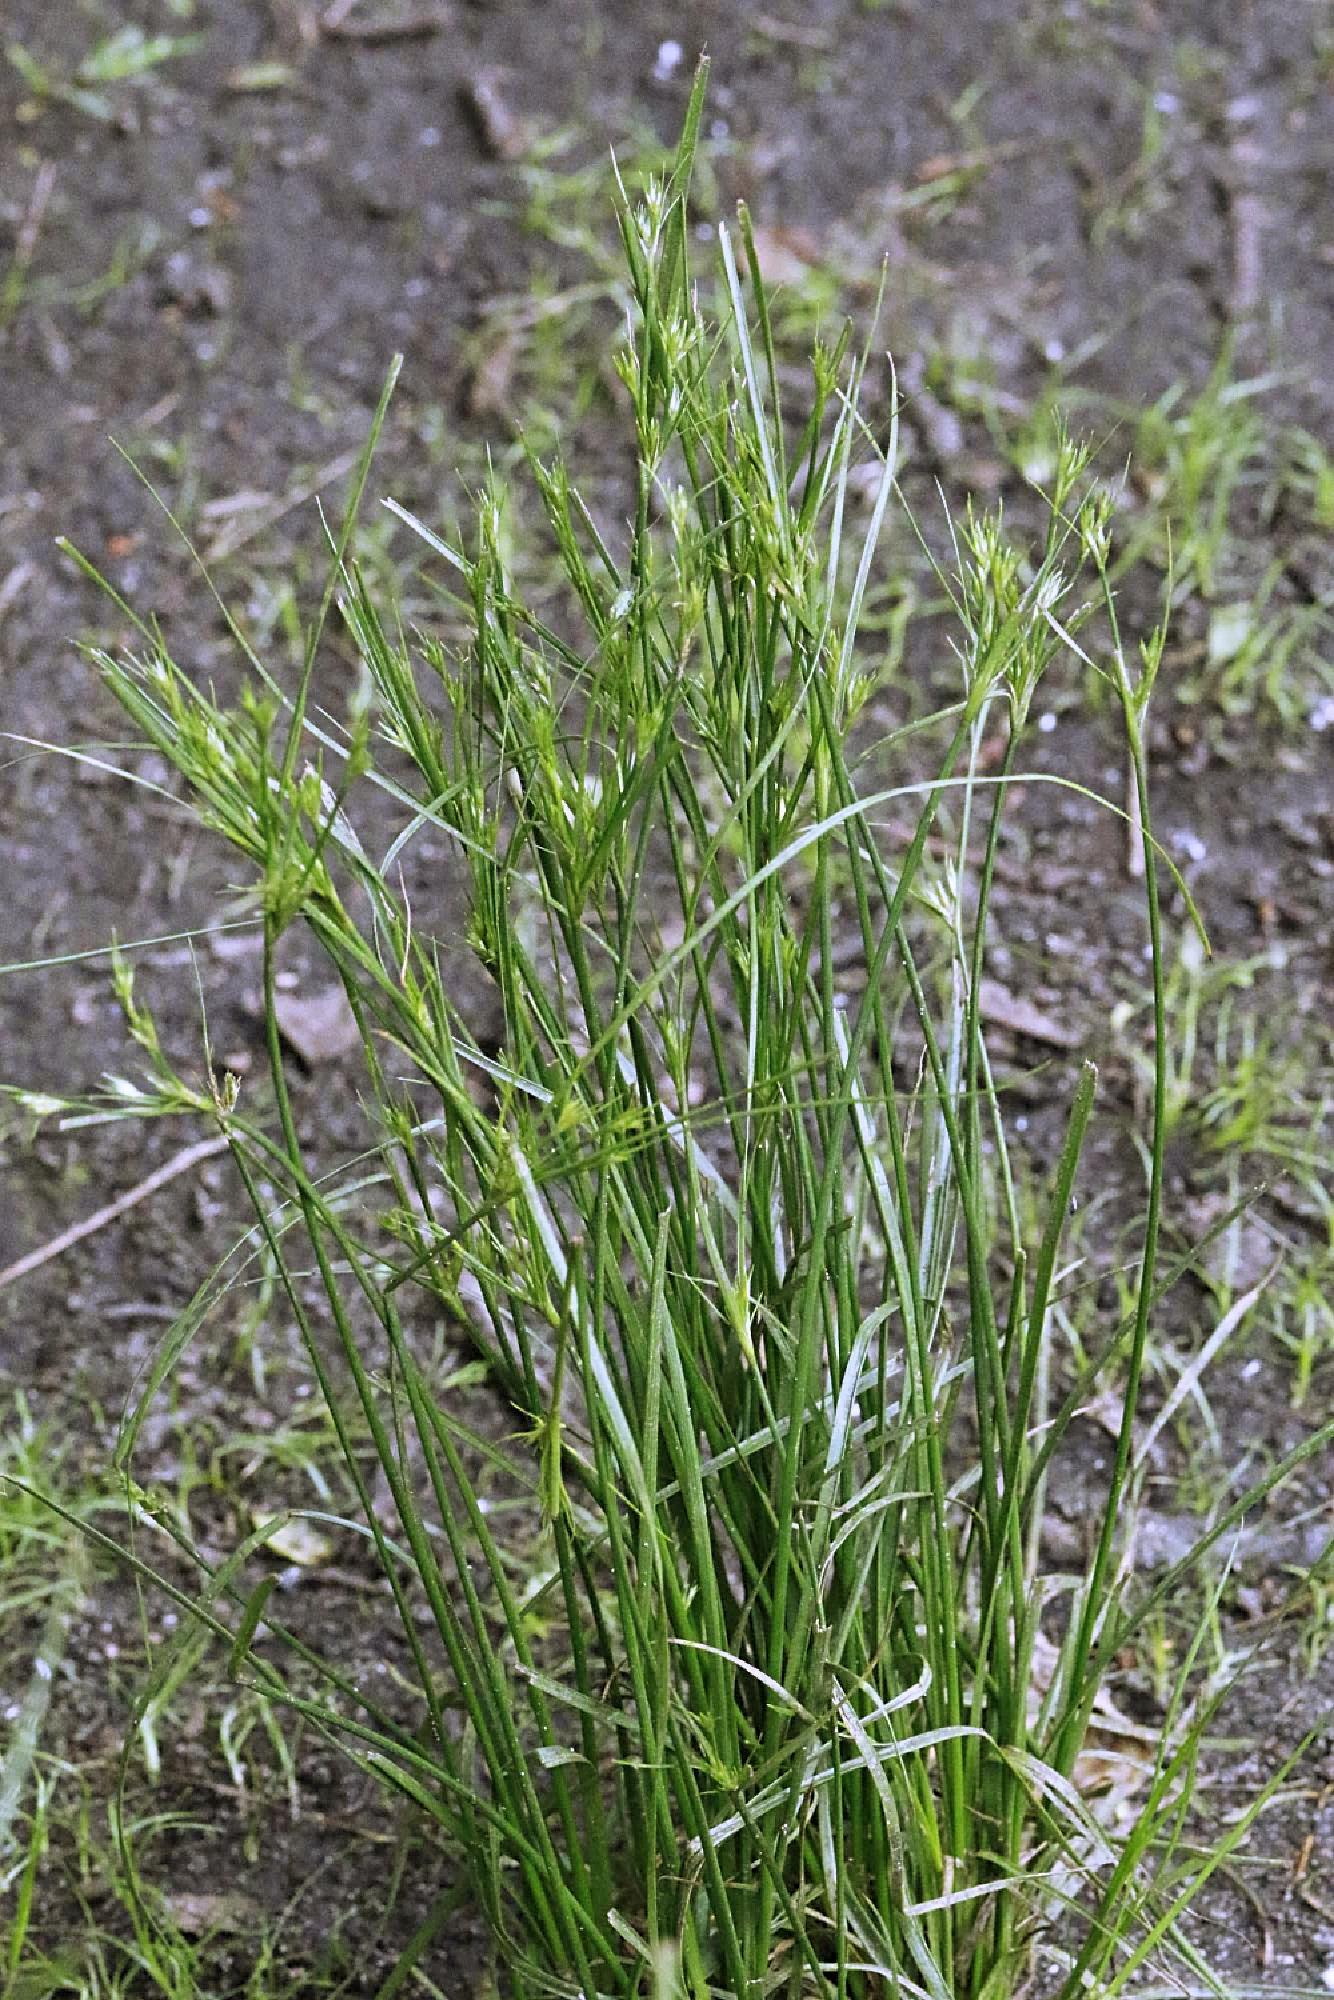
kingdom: Plantae
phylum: Tracheophyta
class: Liliopsida
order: Poales
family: Juncaceae
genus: Juncus
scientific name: Juncus tenuis
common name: Slender rush
